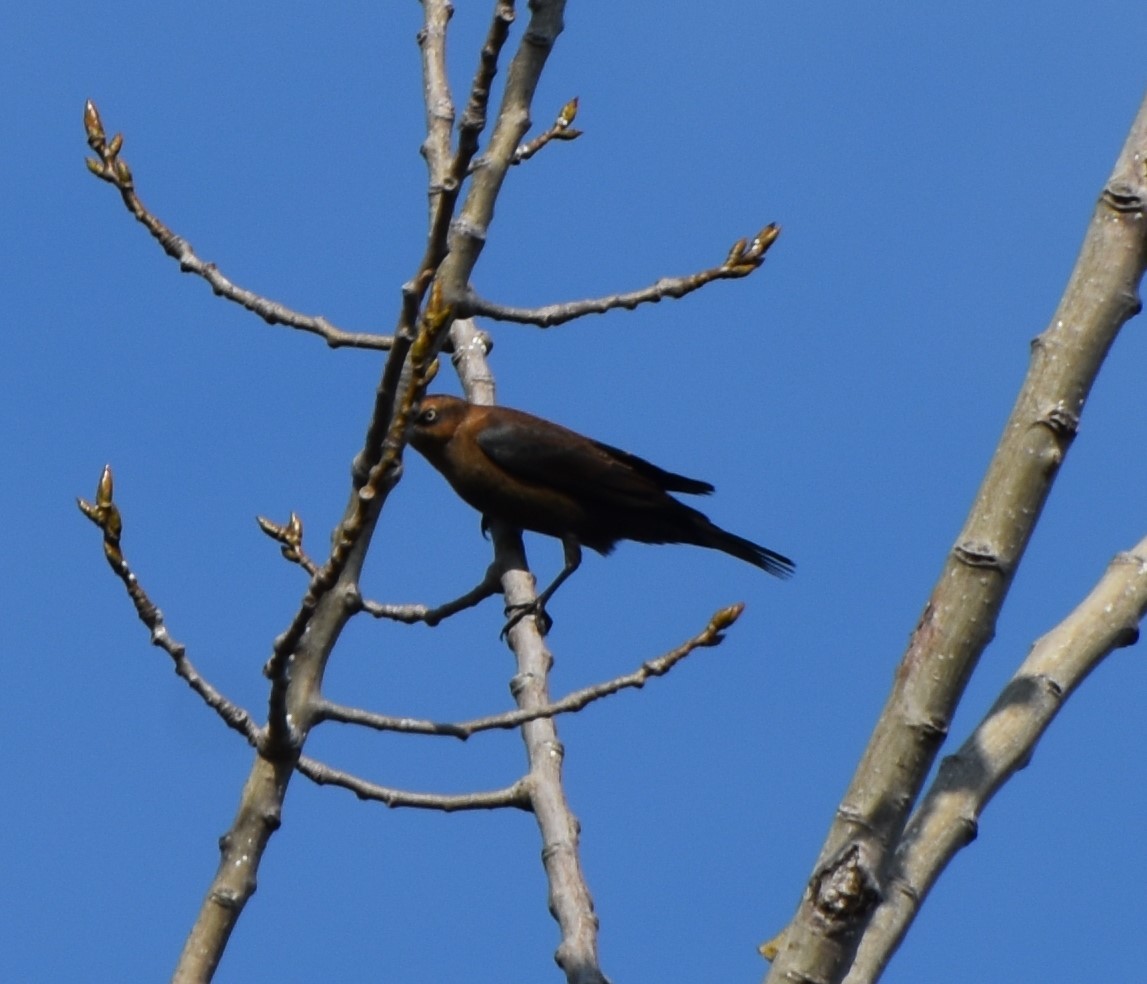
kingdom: Animalia
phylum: Chordata
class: Aves
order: Passeriformes
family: Icteridae
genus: Euphagus
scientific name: Euphagus carolinus
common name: Rusty blackbird
